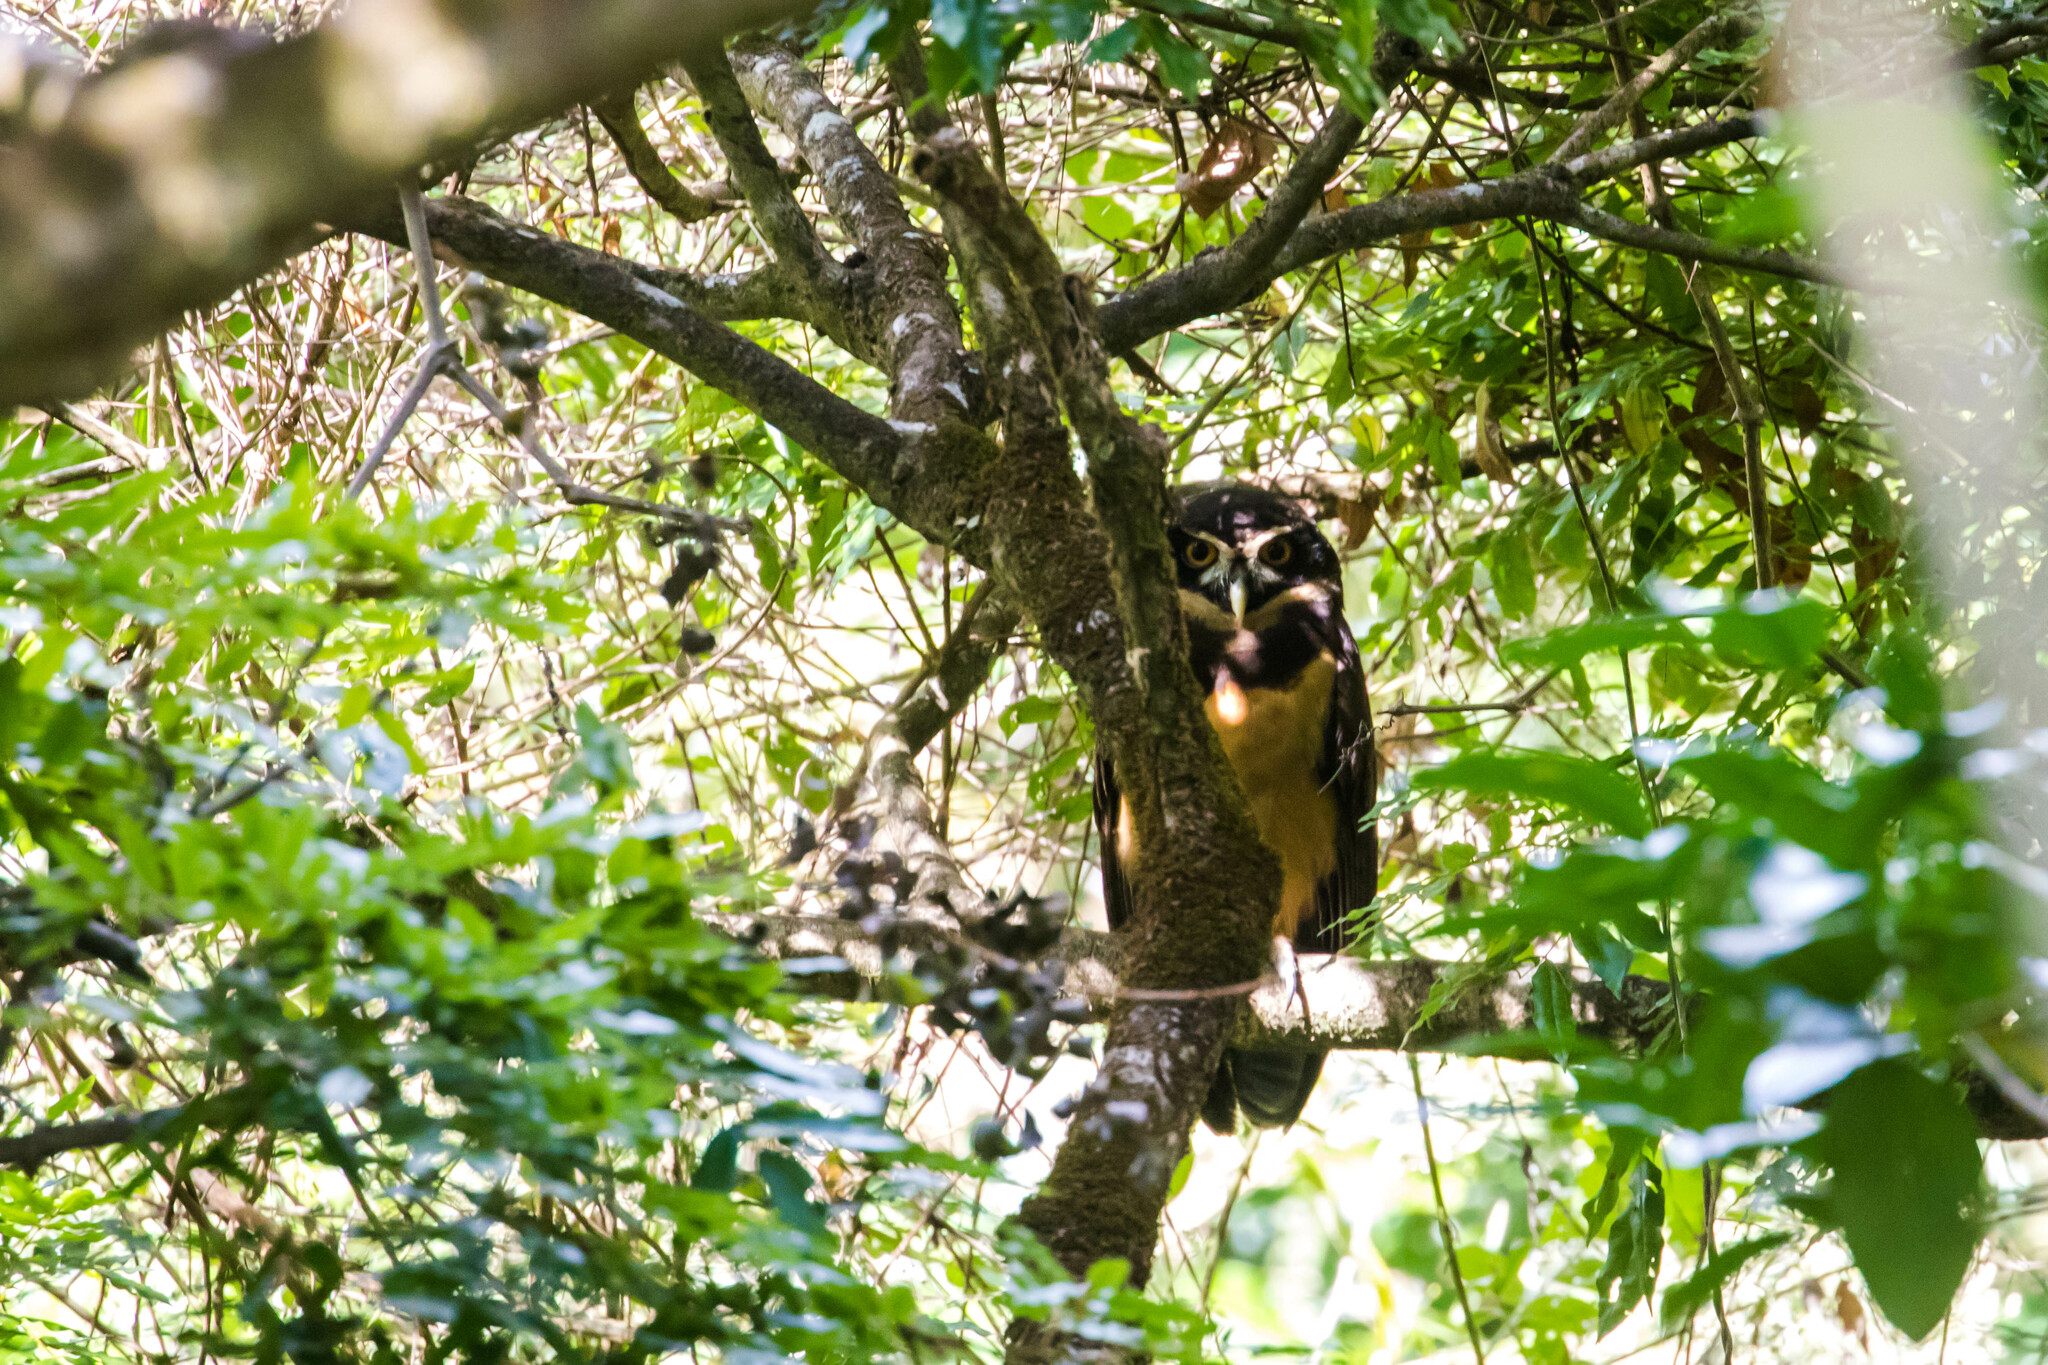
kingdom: Animalia
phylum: Chordata
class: Aves
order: Strigiformes
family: Strigidae
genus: Pulsatrix
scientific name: Pulsatrix perspicillata
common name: Spectacled owl
